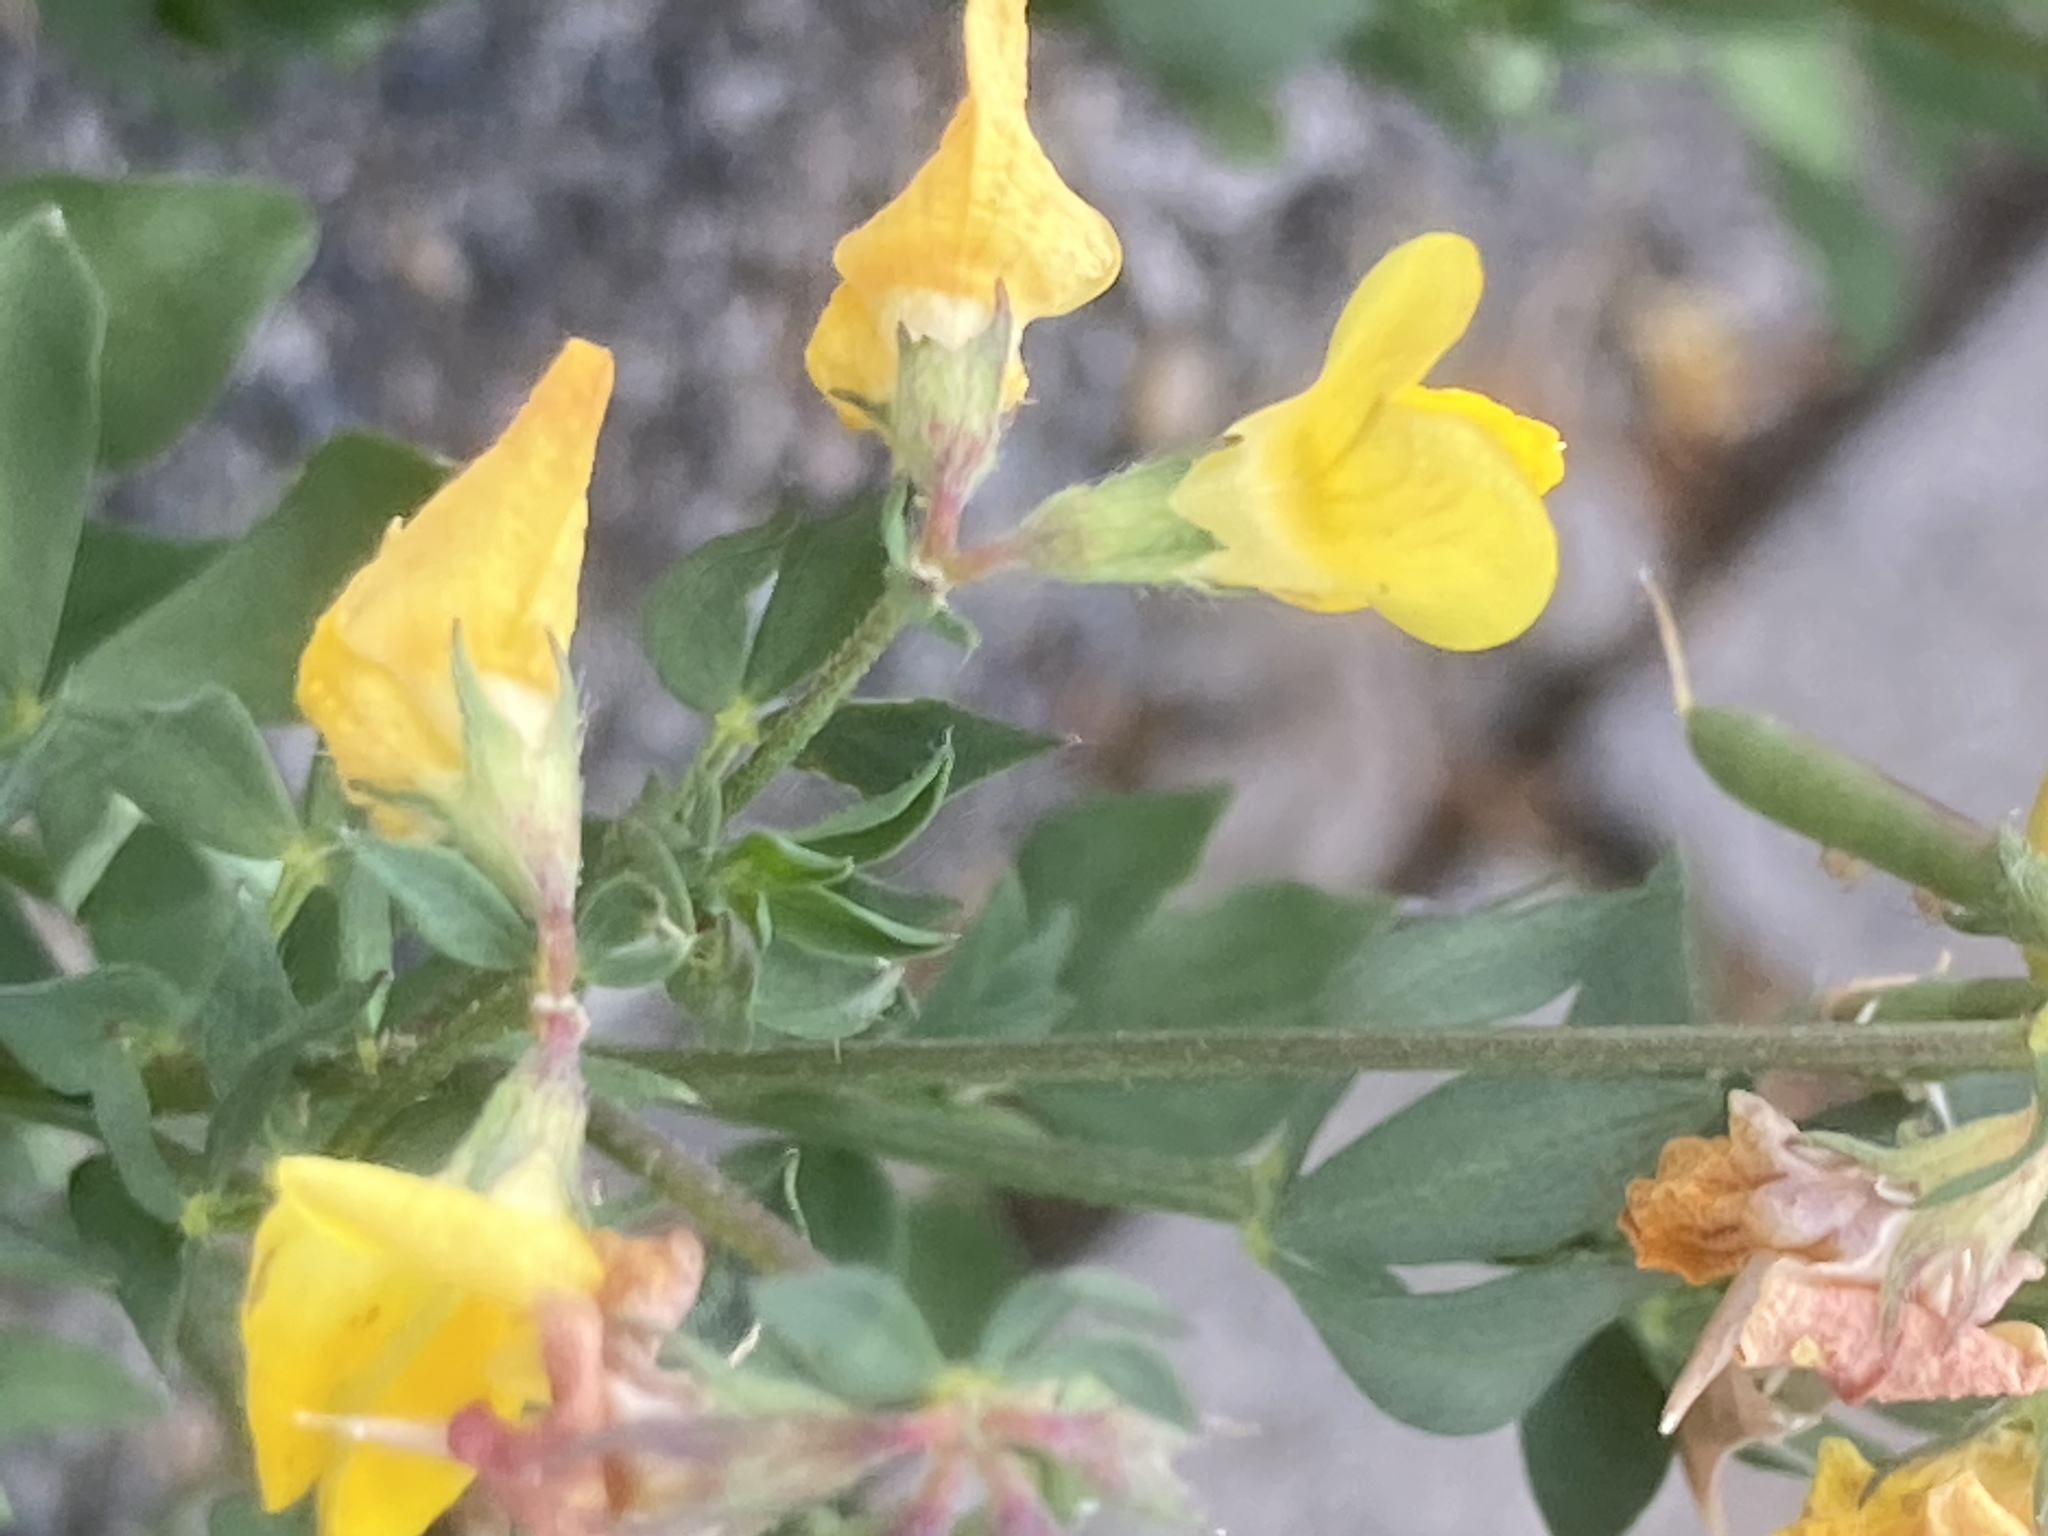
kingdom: Plantae
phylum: Tracheophyta
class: Magnoliopsida
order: Fabales
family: Fabaceae
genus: Lotus
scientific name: Lotus corniculatus
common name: Common bird's-foot-trefoil
